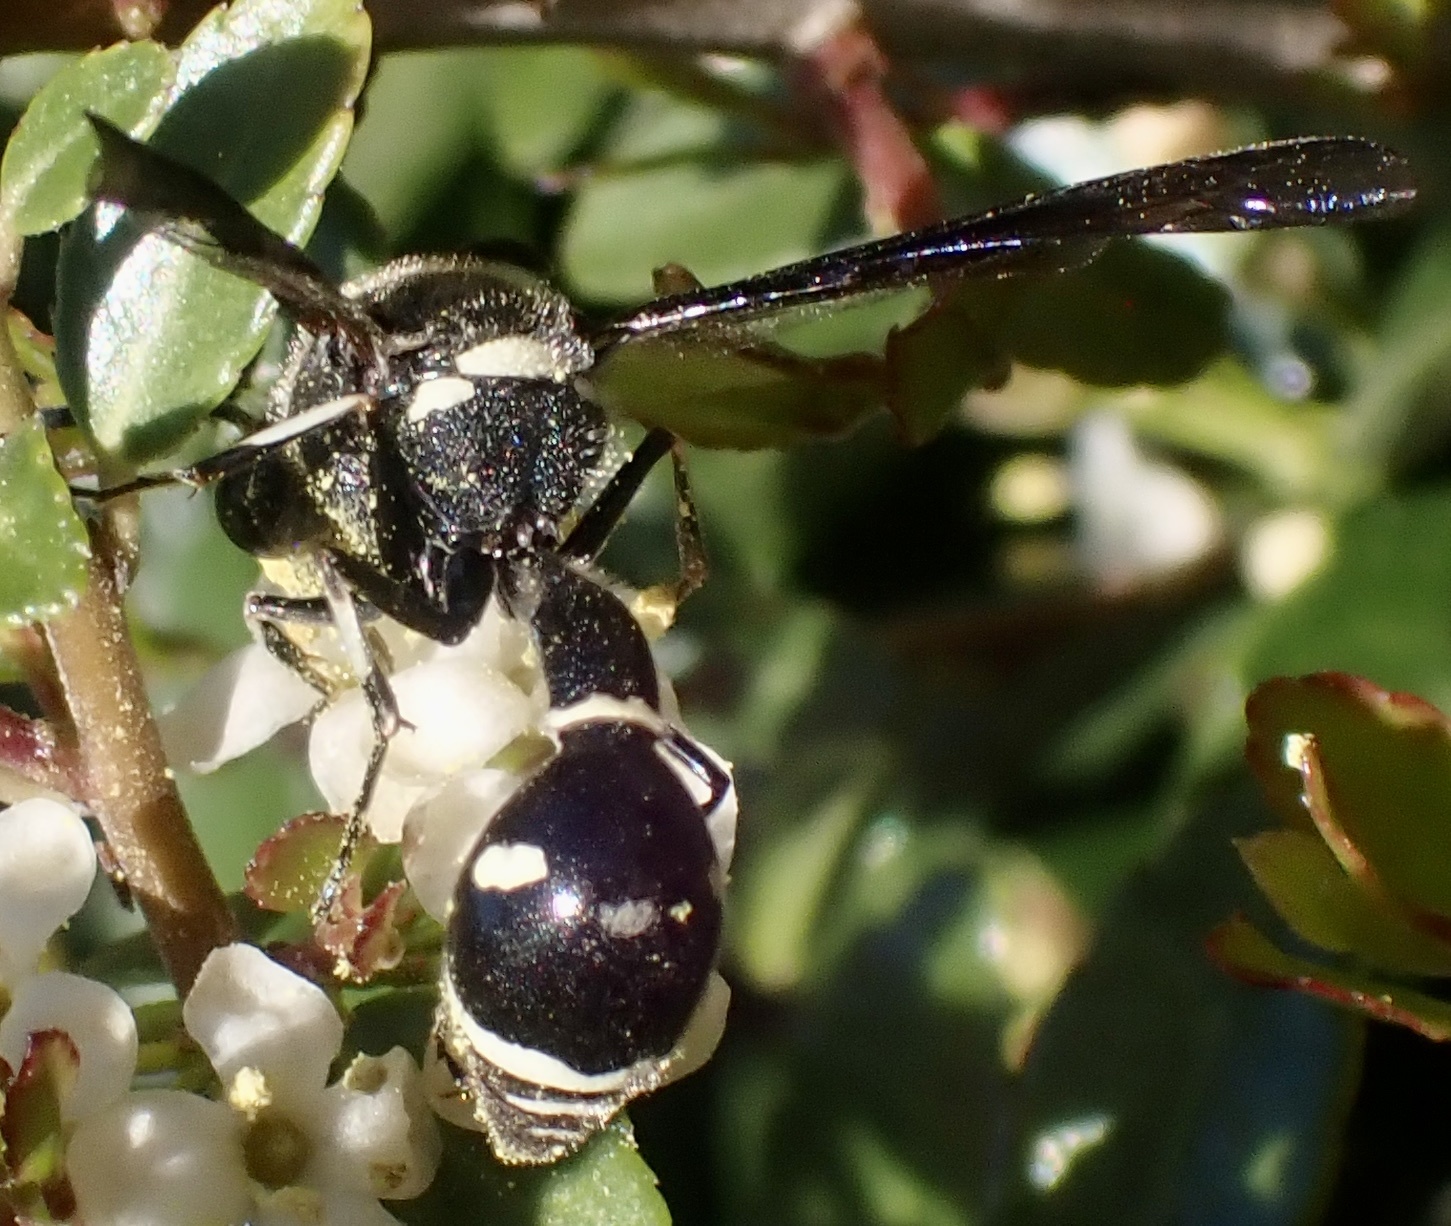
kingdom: Animalia
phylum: Arthropoda
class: Insecta
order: Hymenoptera
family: Vespidae
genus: Eumenes
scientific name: Eumenes fraternus
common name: Fraternal potter wasp
